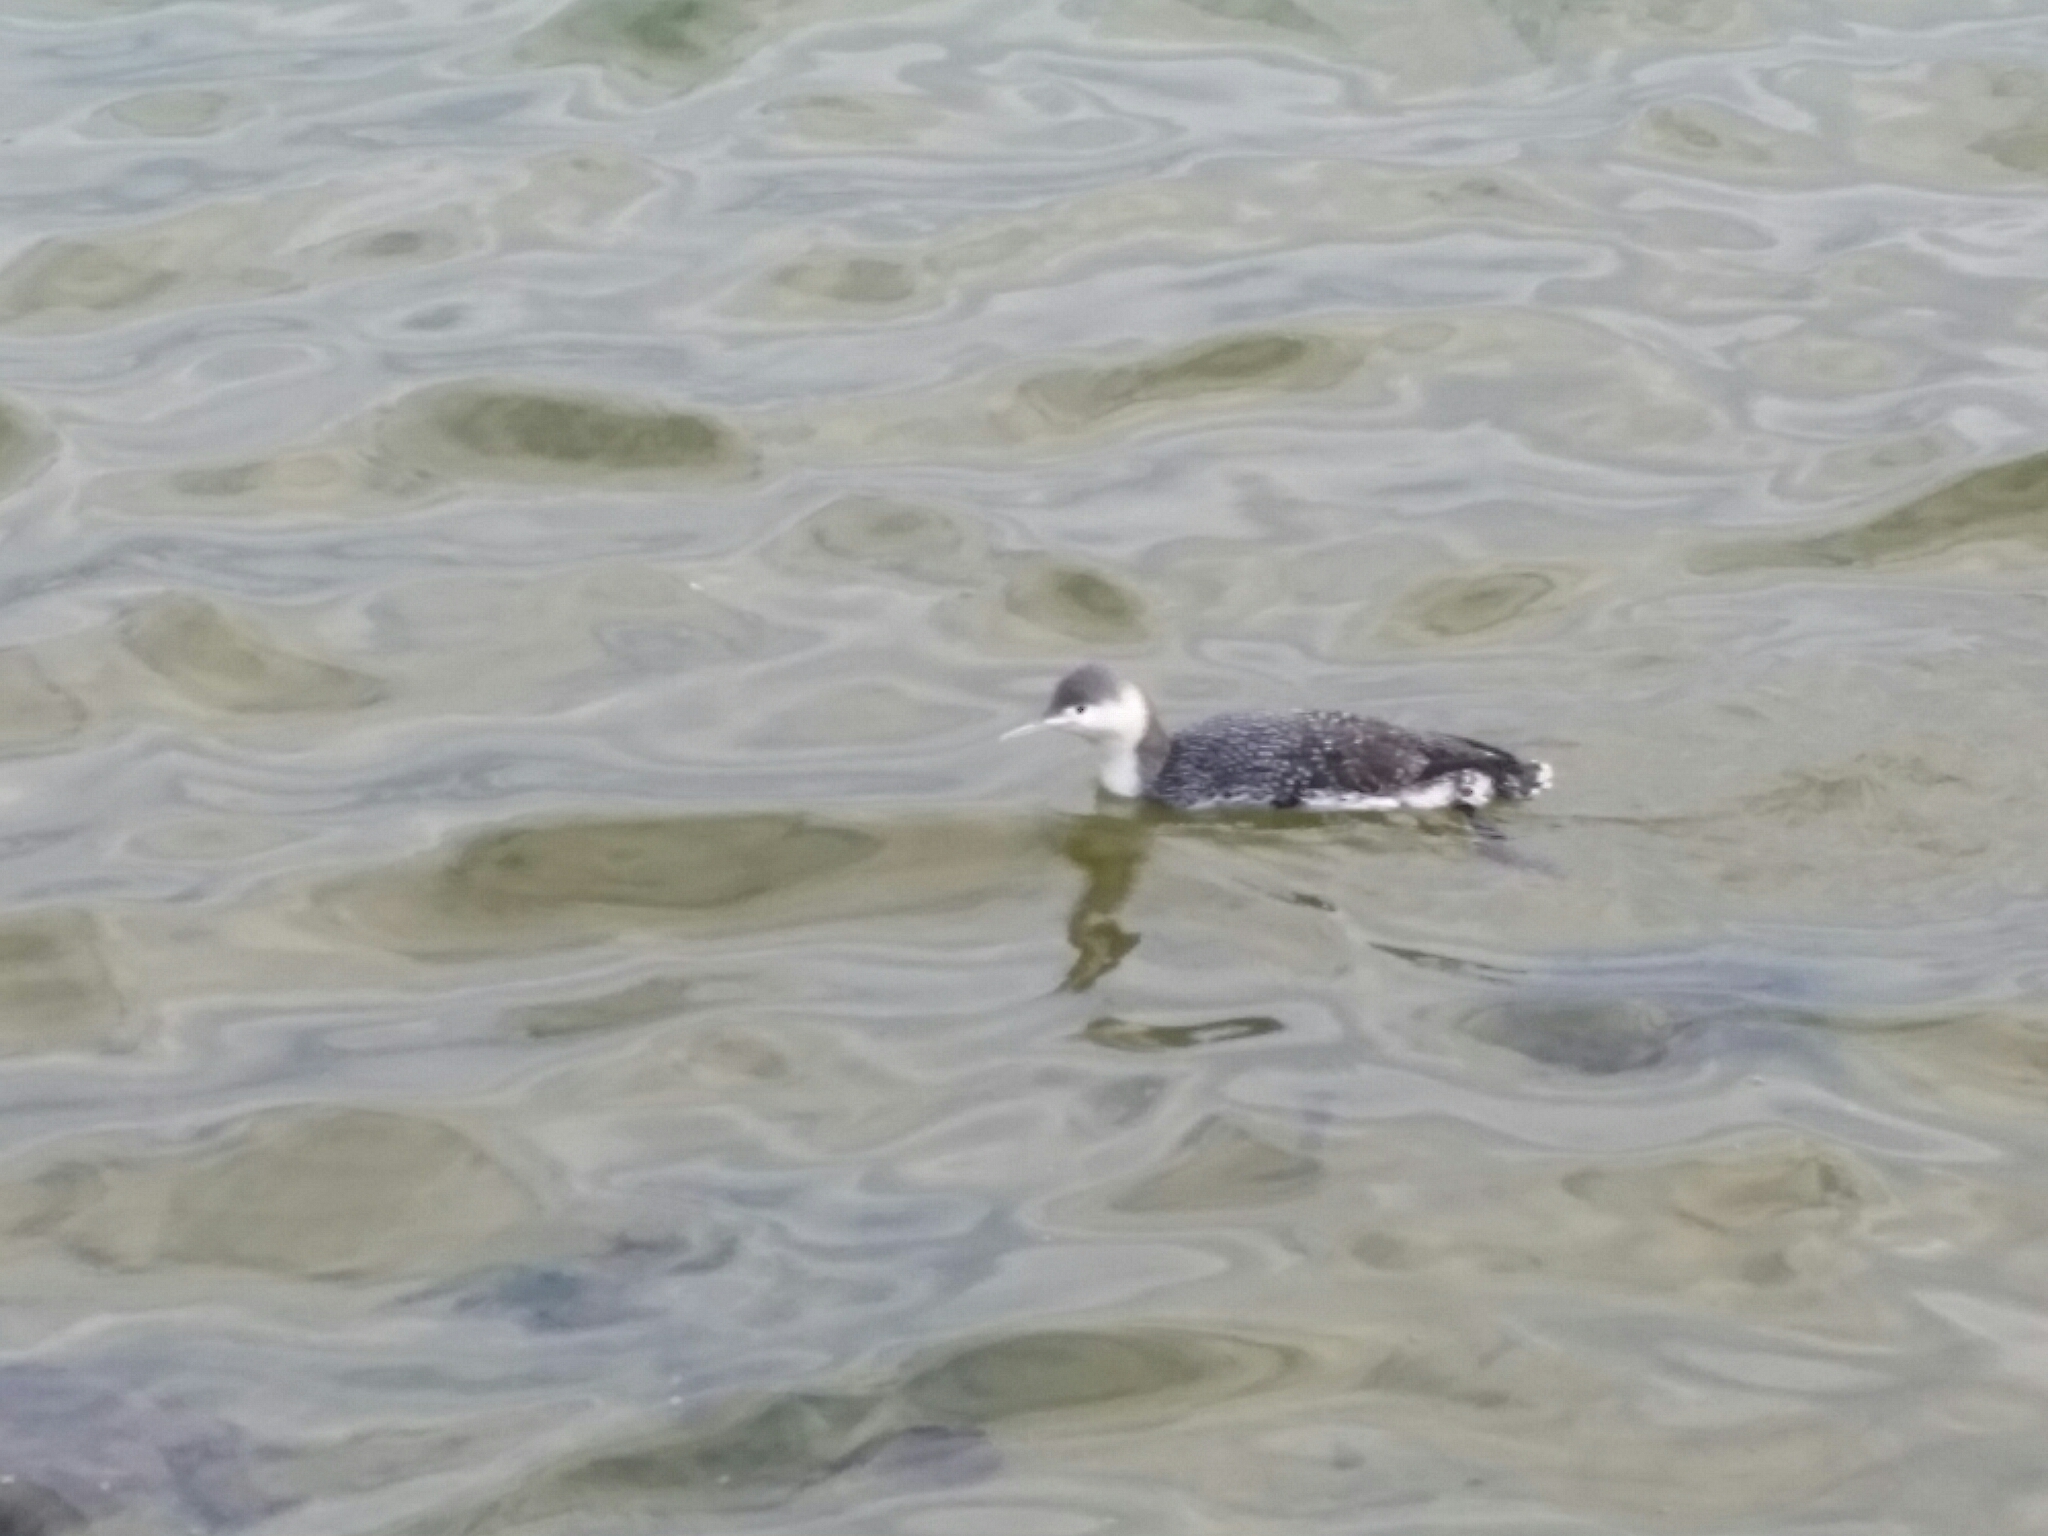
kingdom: Animalia
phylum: Chordata
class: Aves
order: Gaviiformes
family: Gaviidae
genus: Gavia
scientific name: Gavia stellata
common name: Red-throated loon
